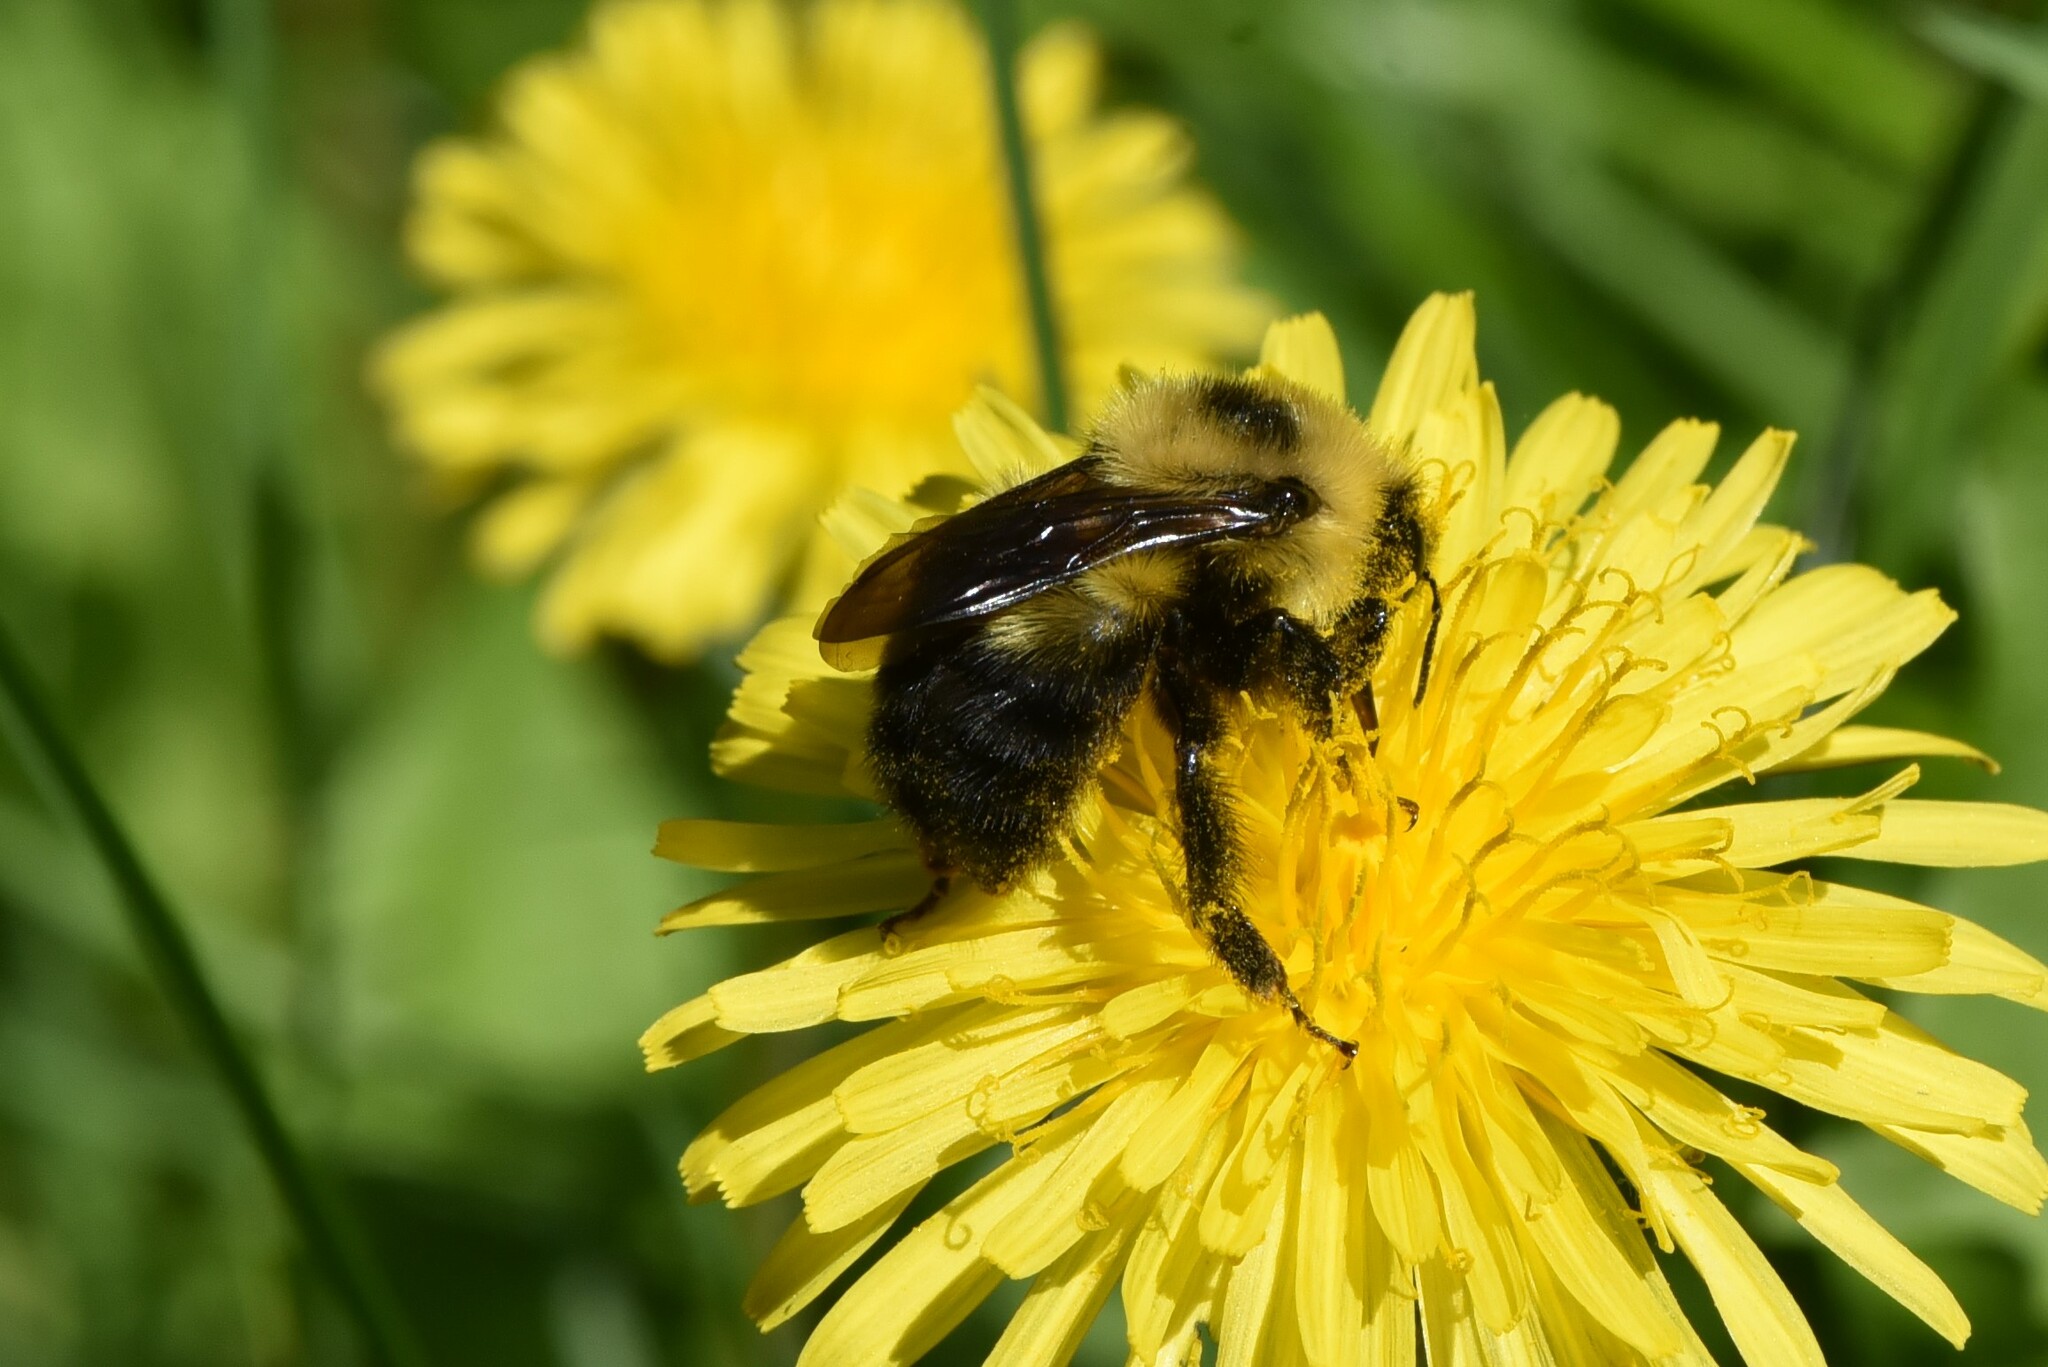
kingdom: Animalia
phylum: Arthropoda
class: Insecta
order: Hymenoptera
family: Apidae
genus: Bombus
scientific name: Bombus rufocinctus
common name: Red-belted bumble bee
